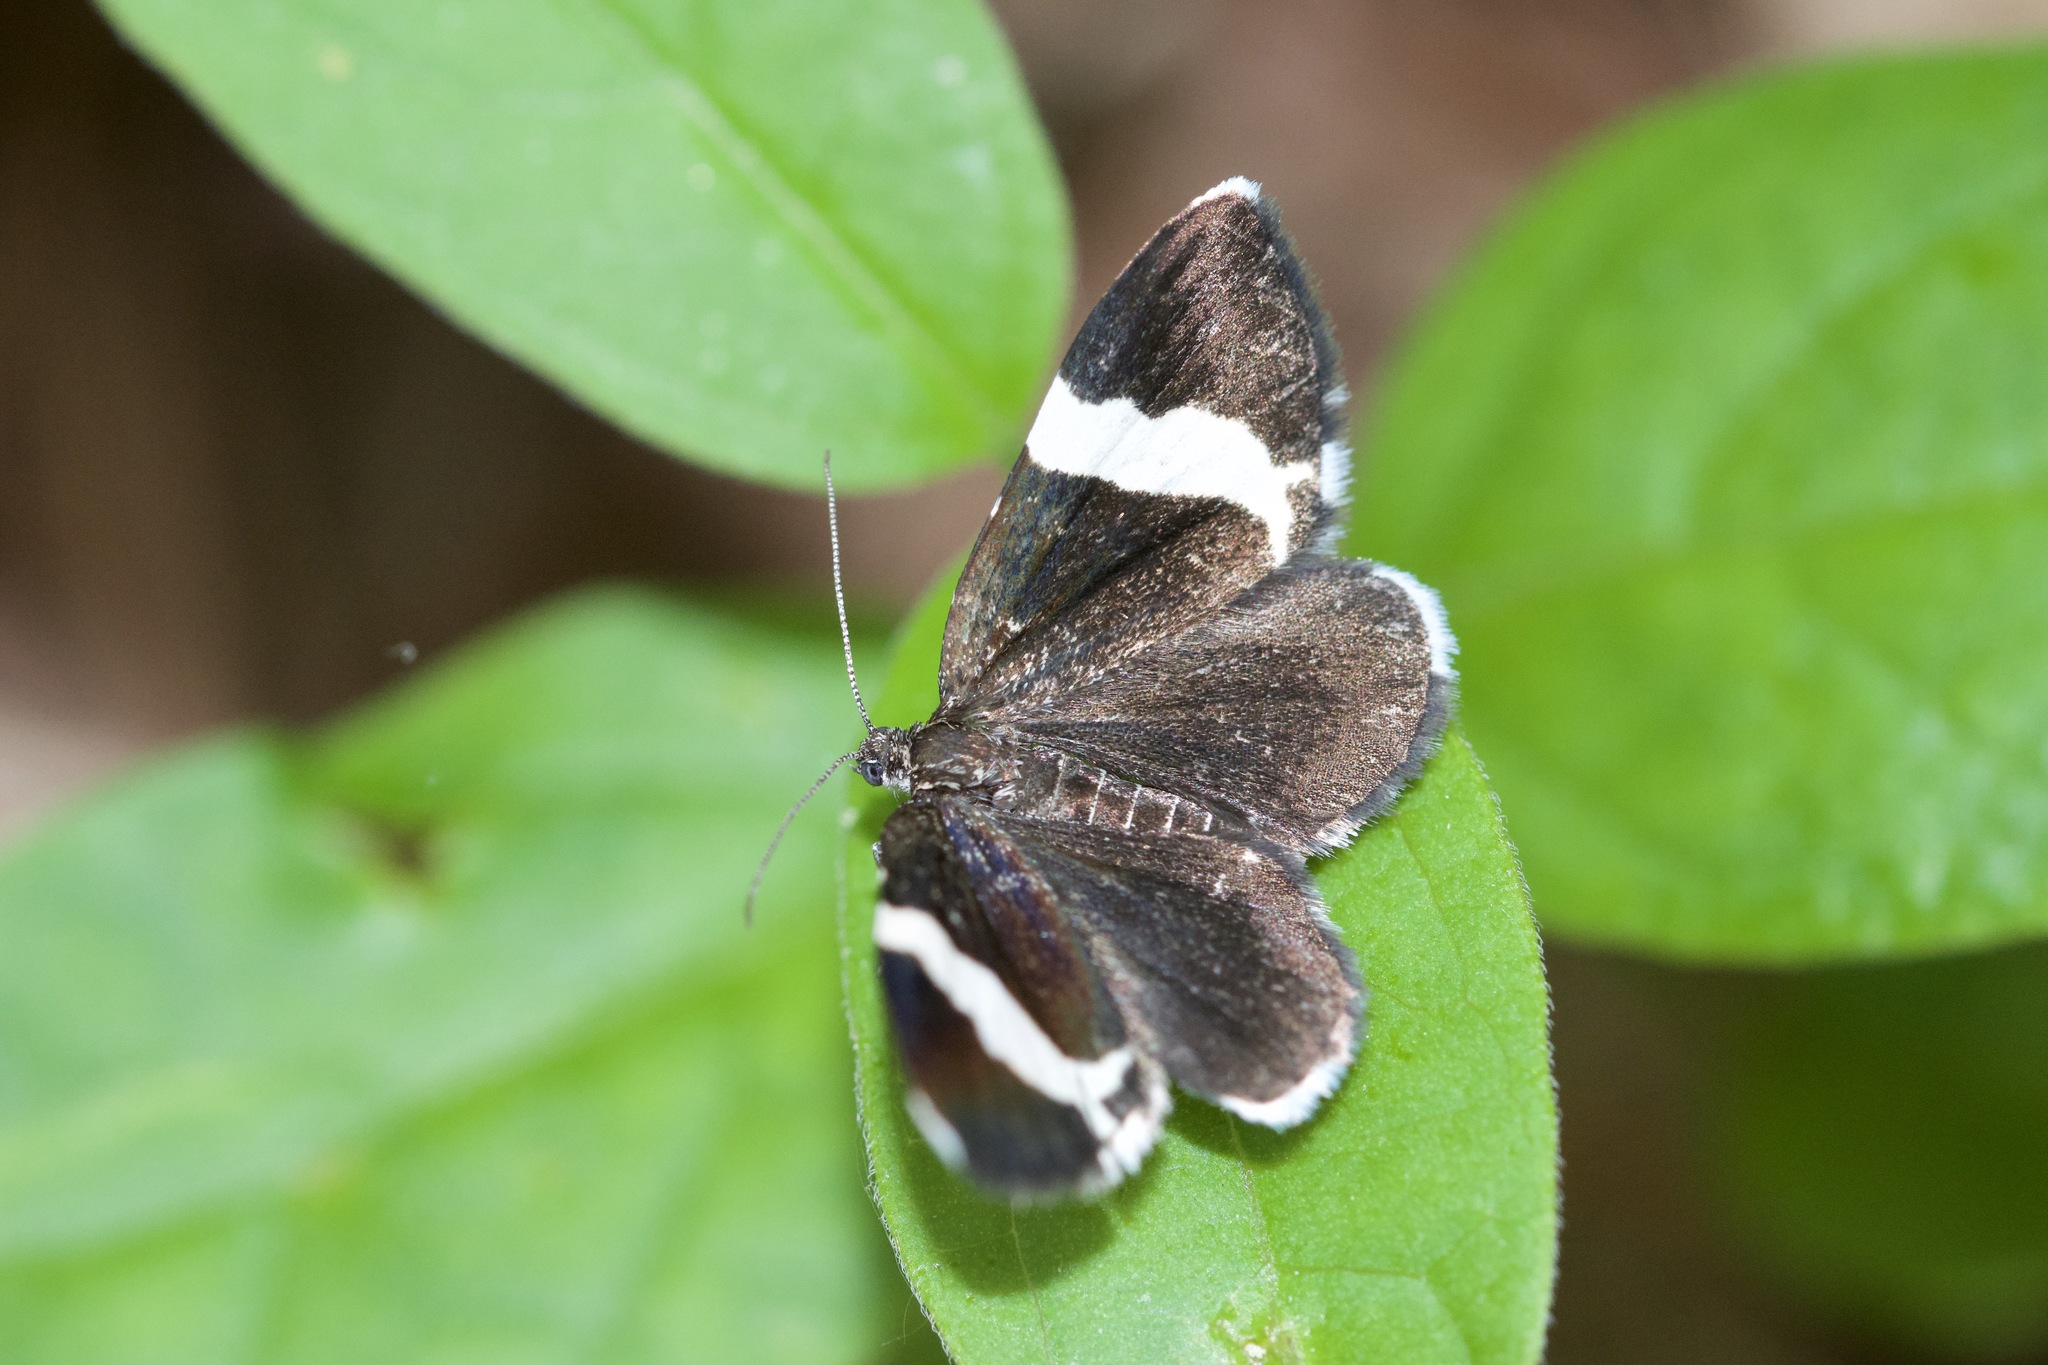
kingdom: Animalia
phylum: Arthropoda
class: Insecta
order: Lepidoptera
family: Geometridae
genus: Trichodezia
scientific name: Trichodezia albovittata
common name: White striped black
